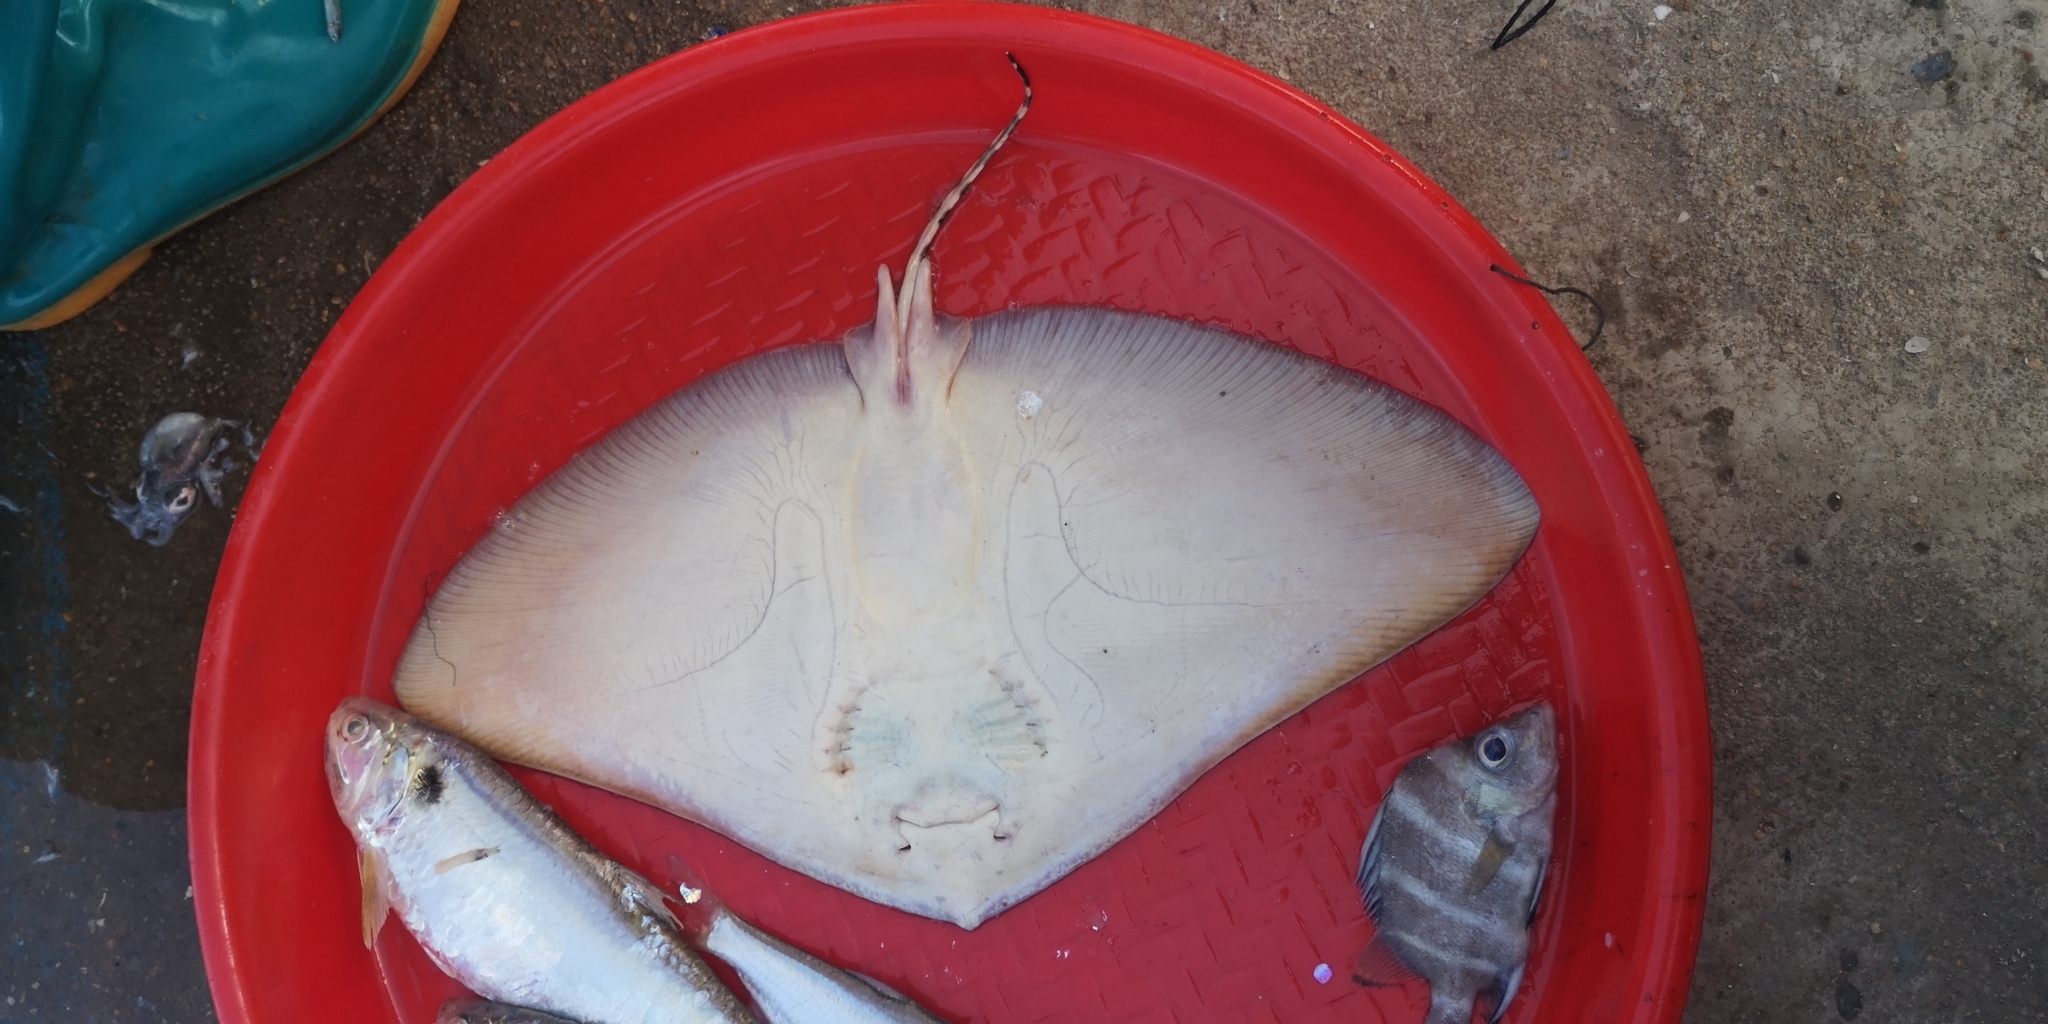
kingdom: Animalia
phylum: Chordata
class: Elasmobranchii
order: Myliobatiformes
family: Gymnuridae
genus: Gymnura
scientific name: Gymnura poecilura
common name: Longtail butterfly ray
